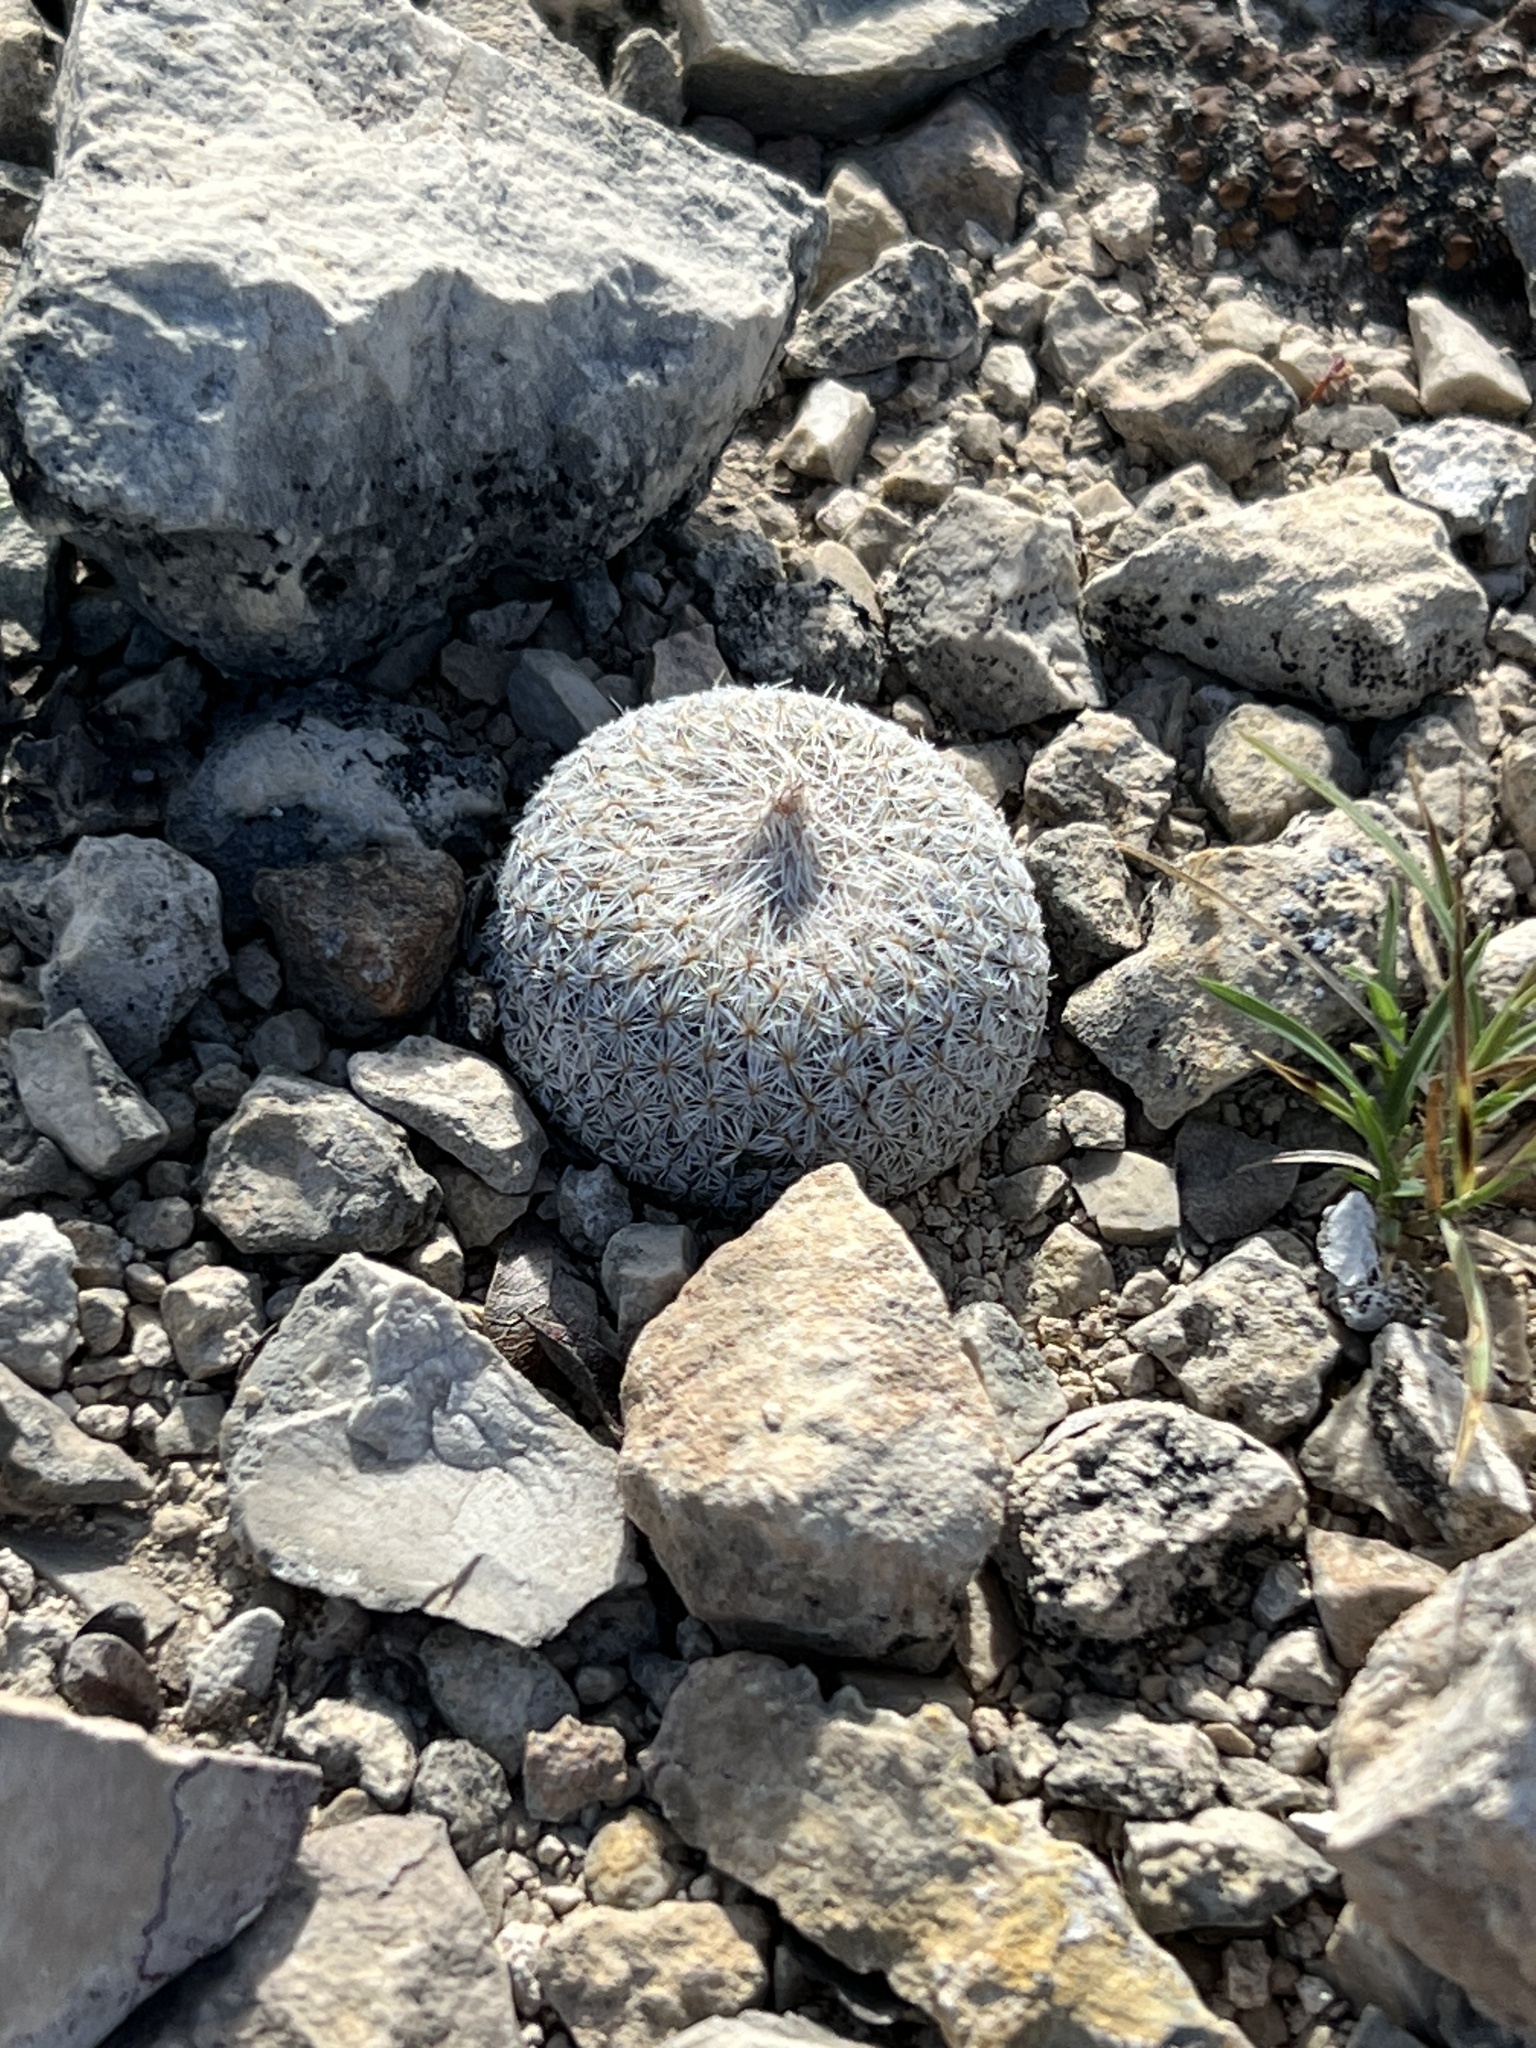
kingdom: Plantae
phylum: Tracheophyta
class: Magnoliopsida
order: Caryophyllales
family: Cactaceae
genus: Epithelantha
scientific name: Epithelantha micromeris
